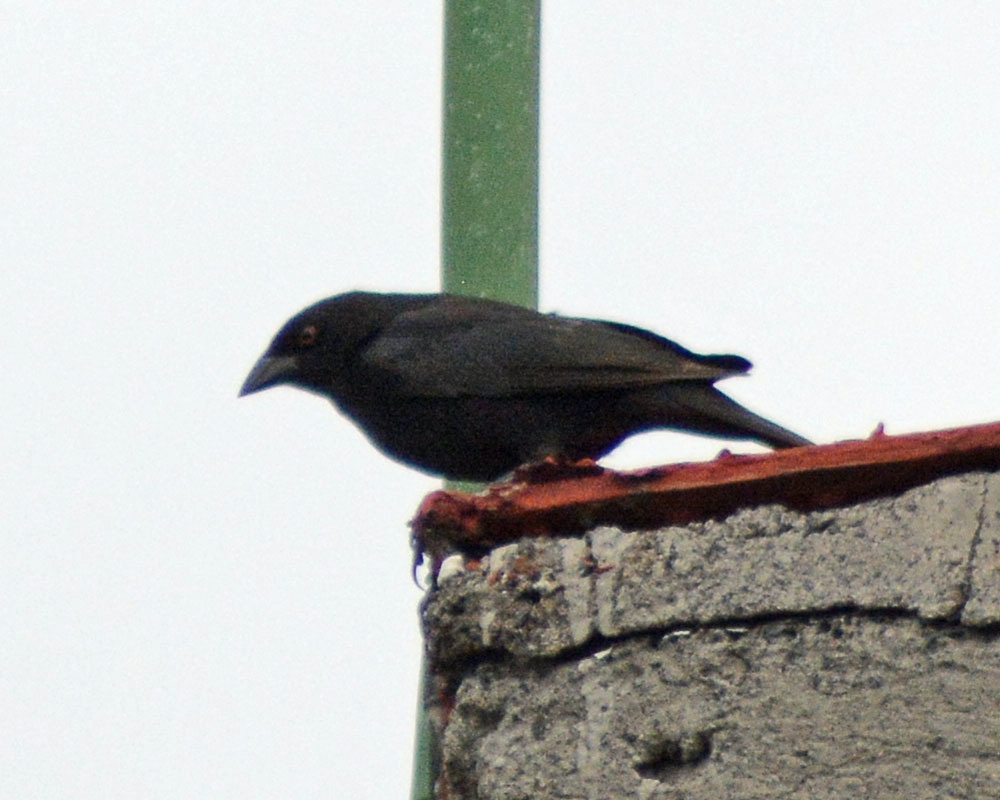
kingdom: Animalia
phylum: Chordata
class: Aves
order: Passeriformes
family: Icteridae
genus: Molothrus
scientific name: Molothrus aeneus
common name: Bronzed cowbird
